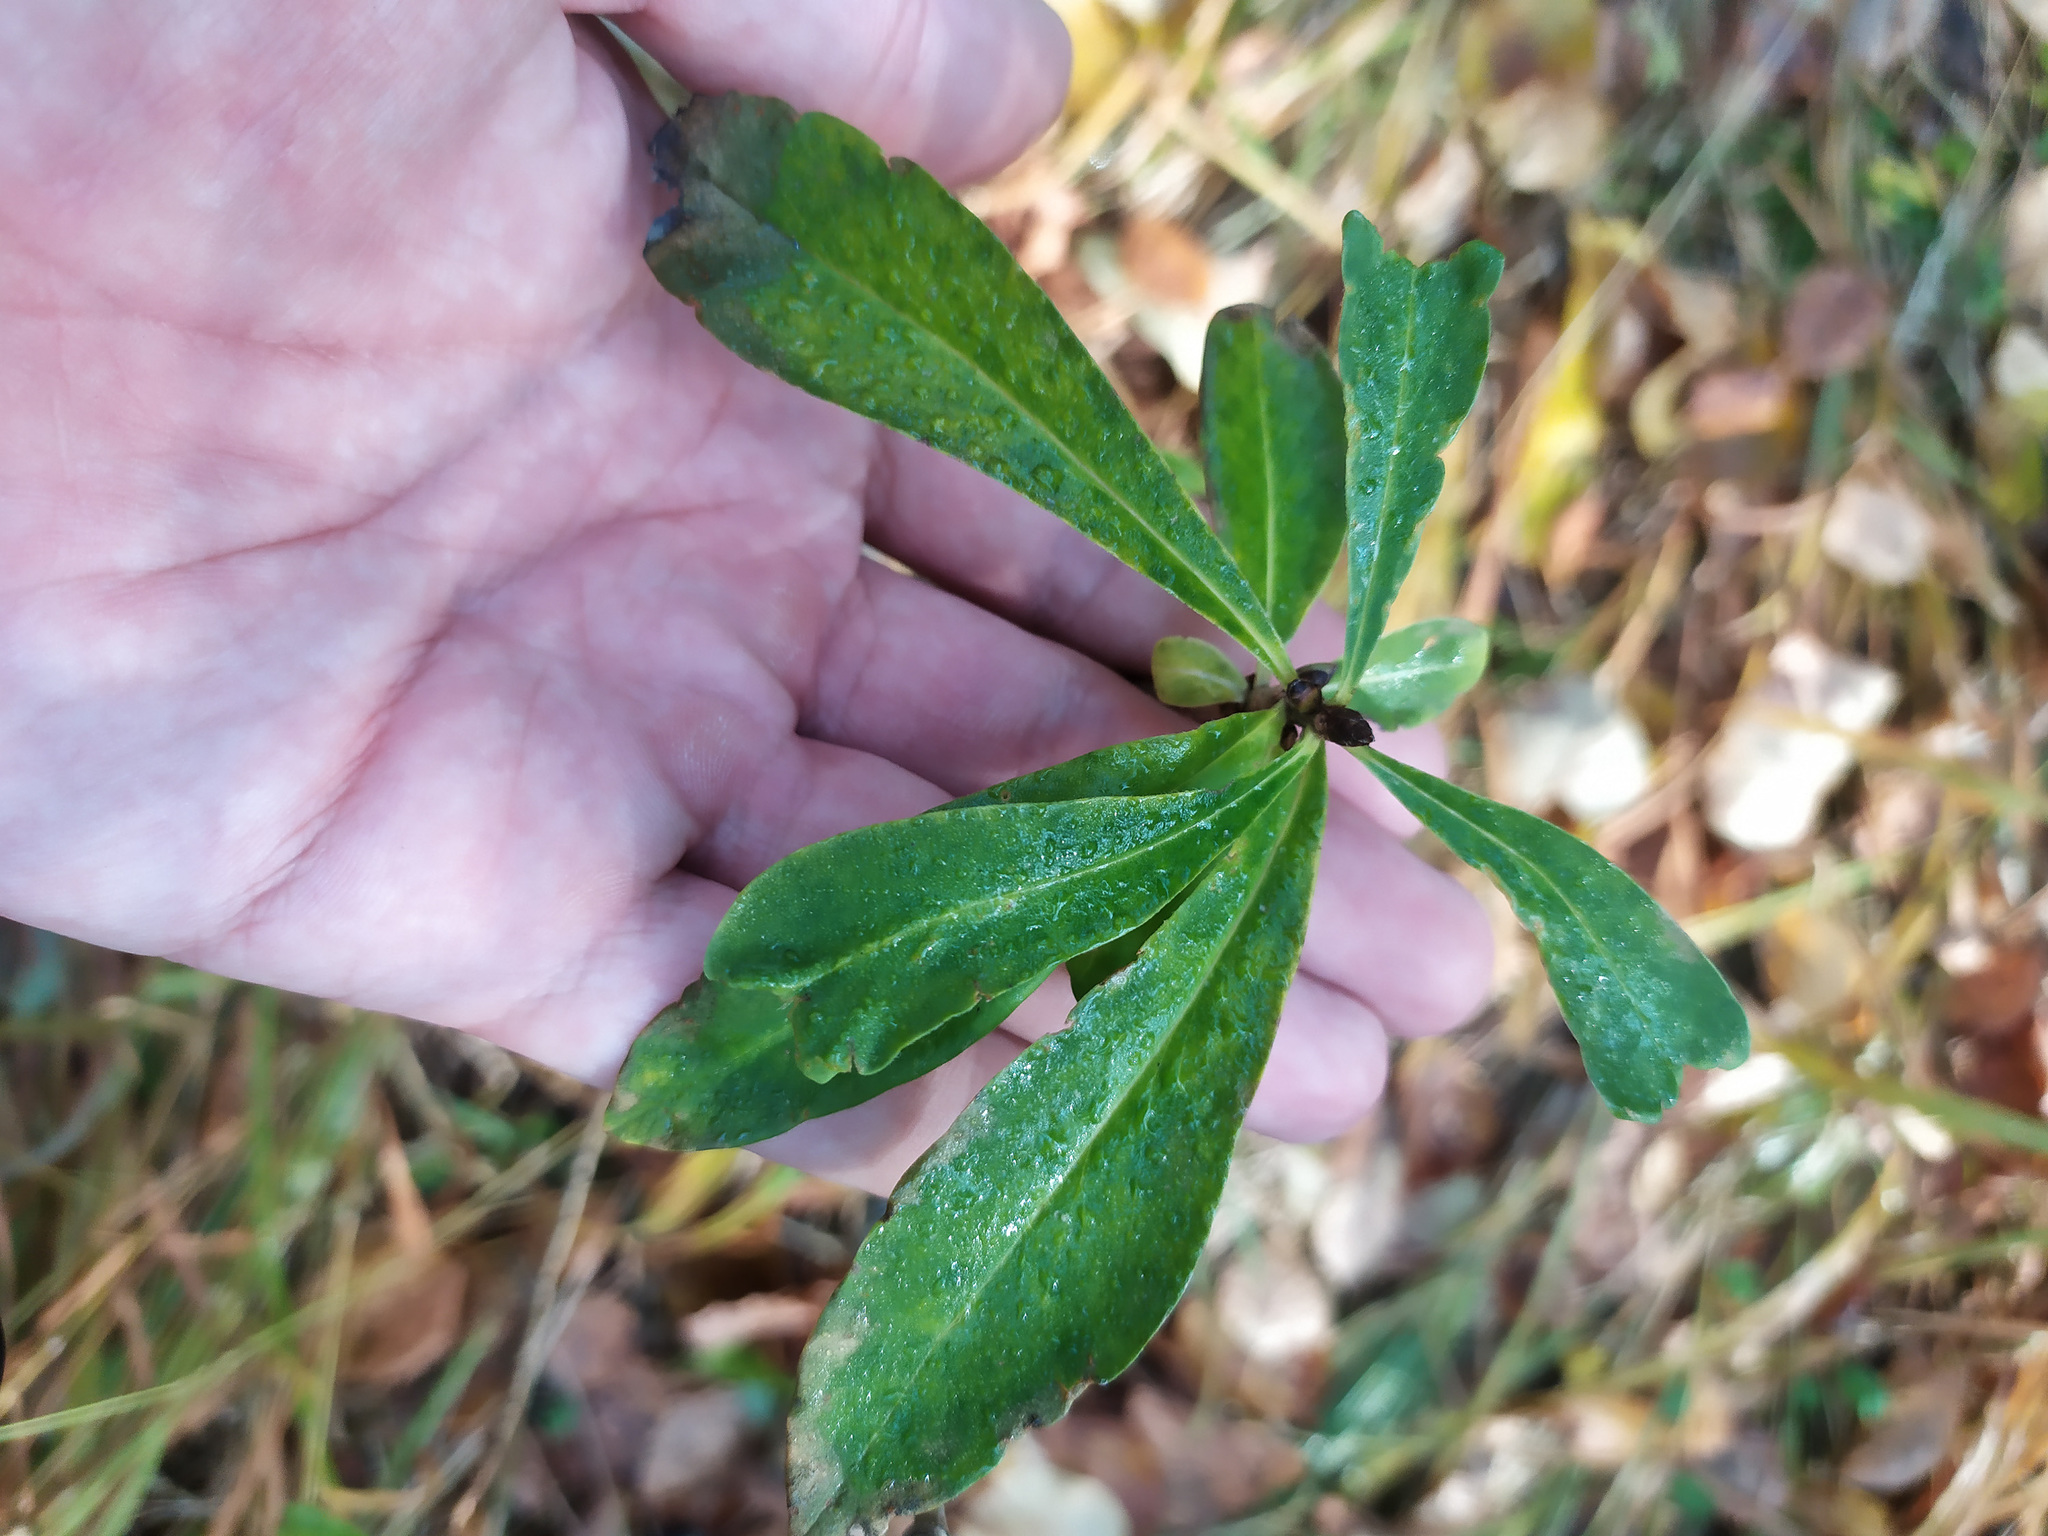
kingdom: Plantae
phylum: Tracheophyta
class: Magnoliopsida
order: Malvales
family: Thymelaeaceae
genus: Daphne
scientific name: Daphne mezereum
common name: Mezereon
